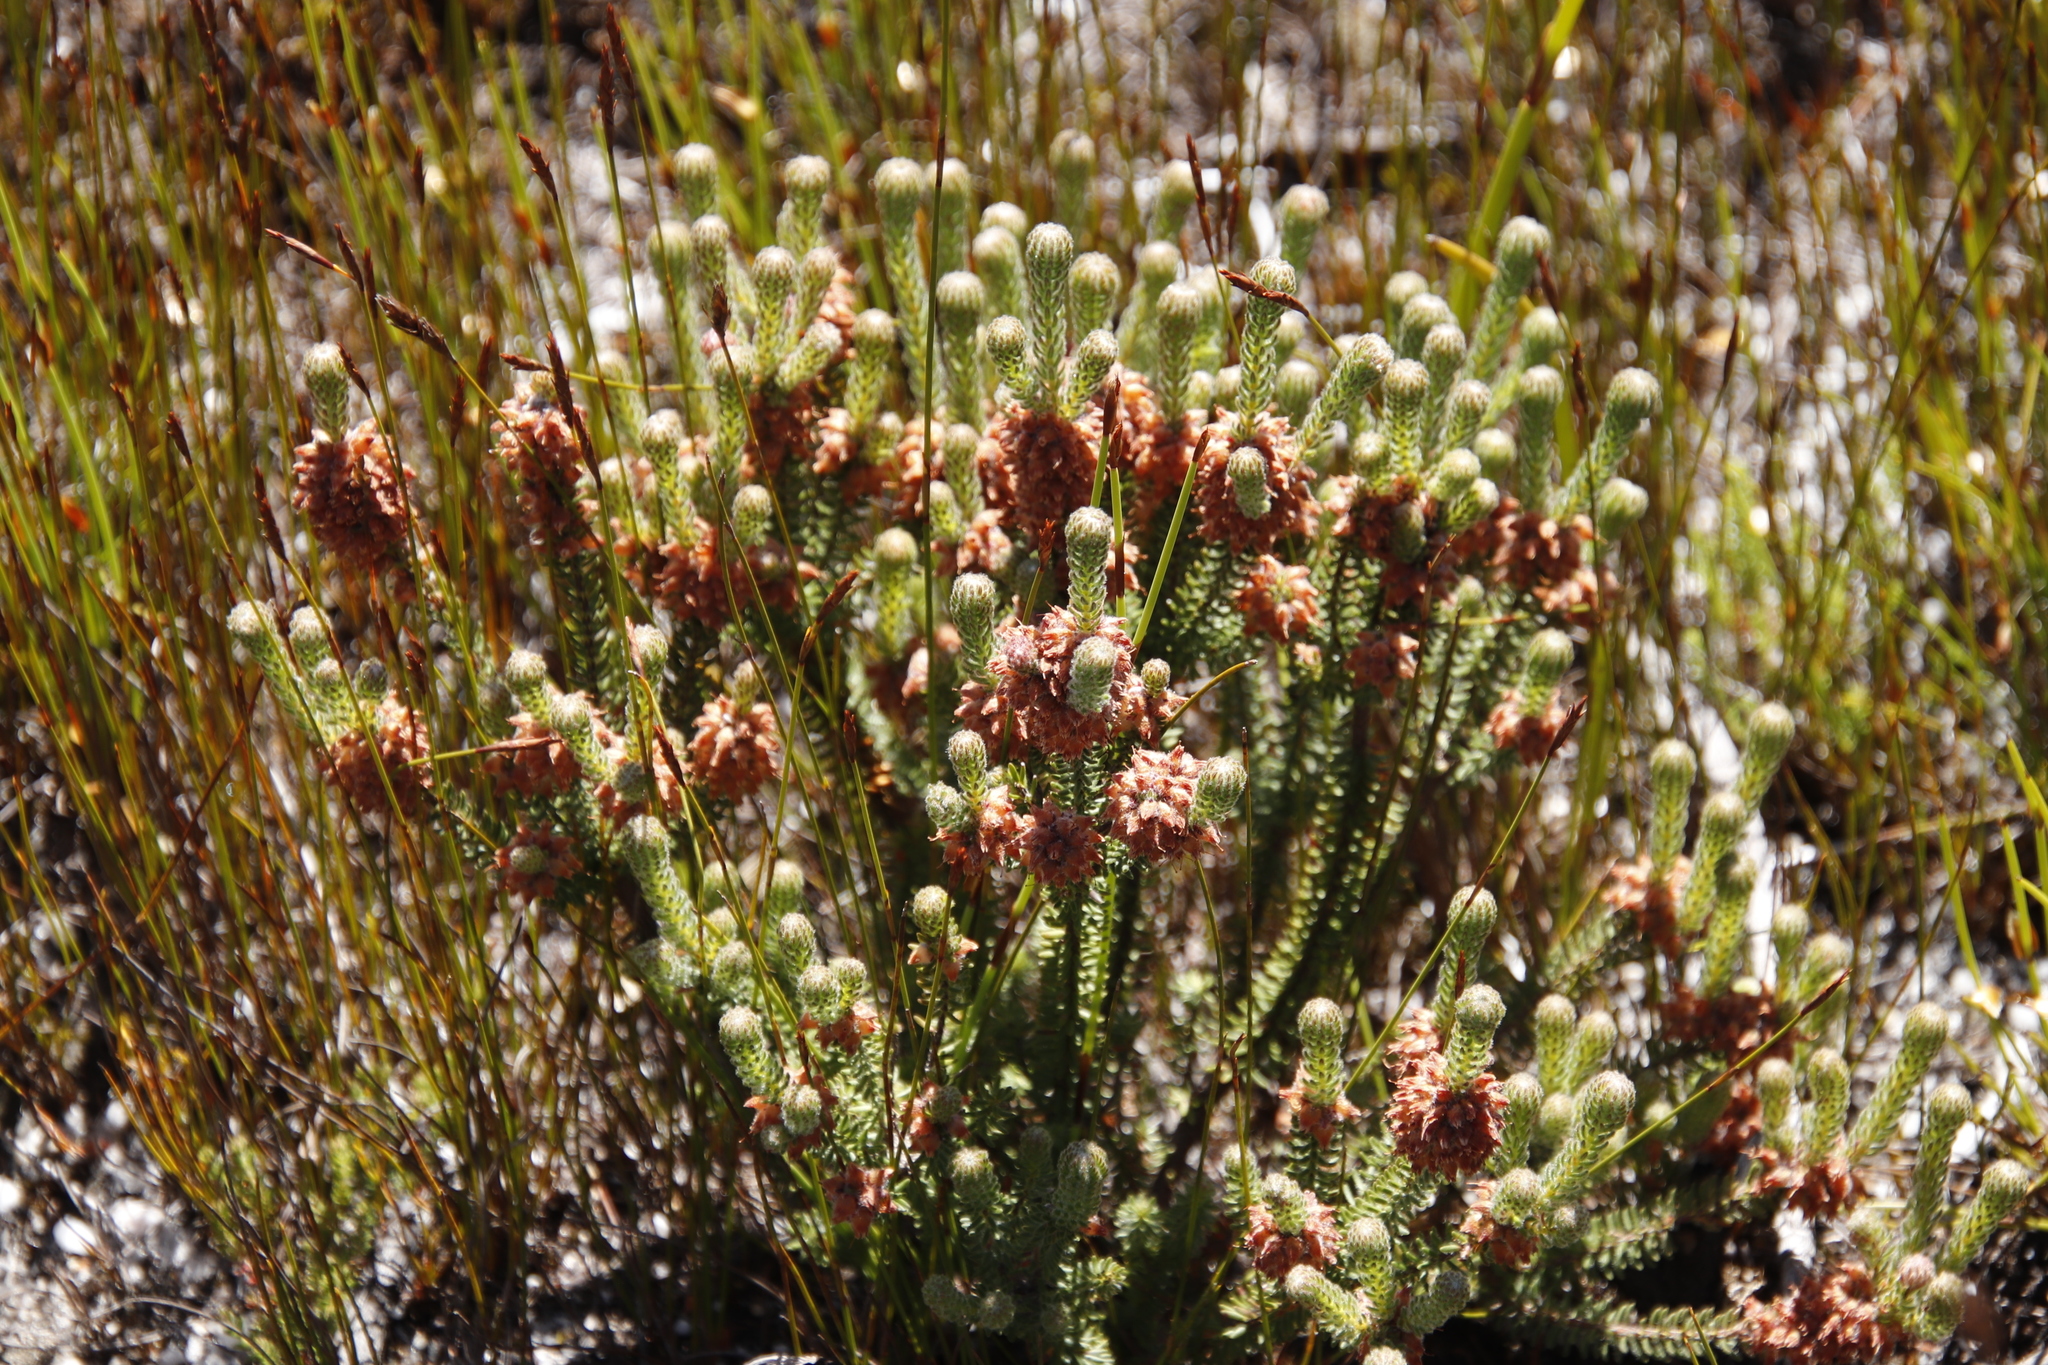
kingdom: Plantae
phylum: Tracheophyta
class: Magnoliopsida
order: Ericales
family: Ericaceae
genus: Erica
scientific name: Erica empetrina
